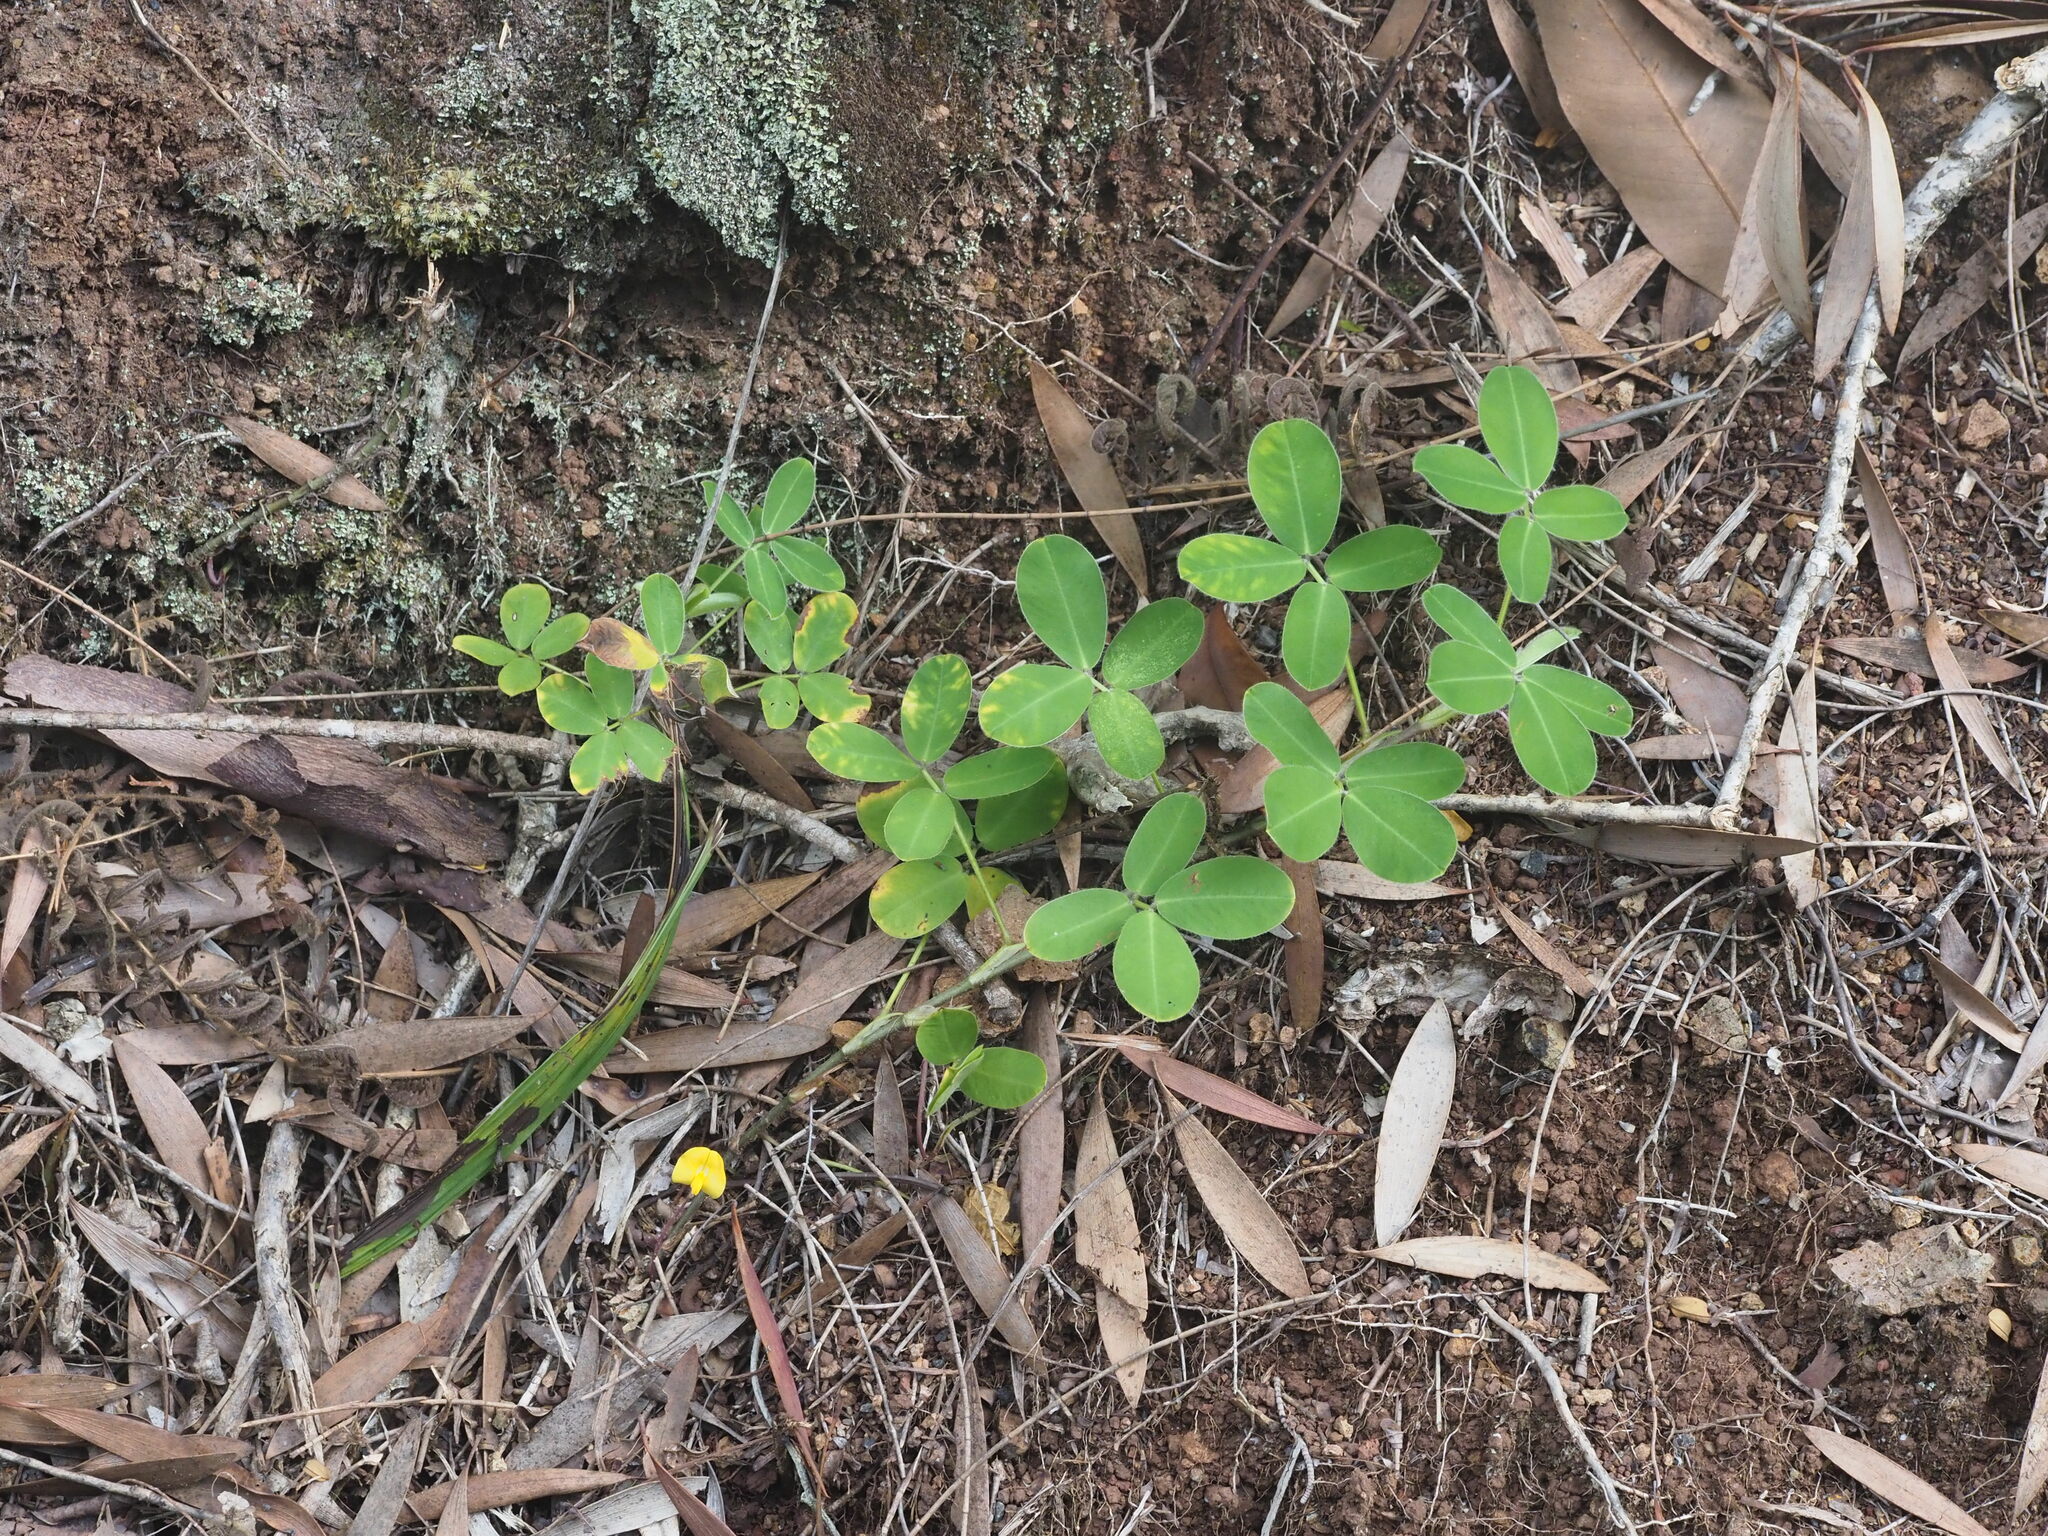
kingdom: Plantae
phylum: Tracheophyta
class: Magnoliopsida
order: Fabales
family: Fabaceae
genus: Arachis
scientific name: Arachis pintoi
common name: Pinto peanut
